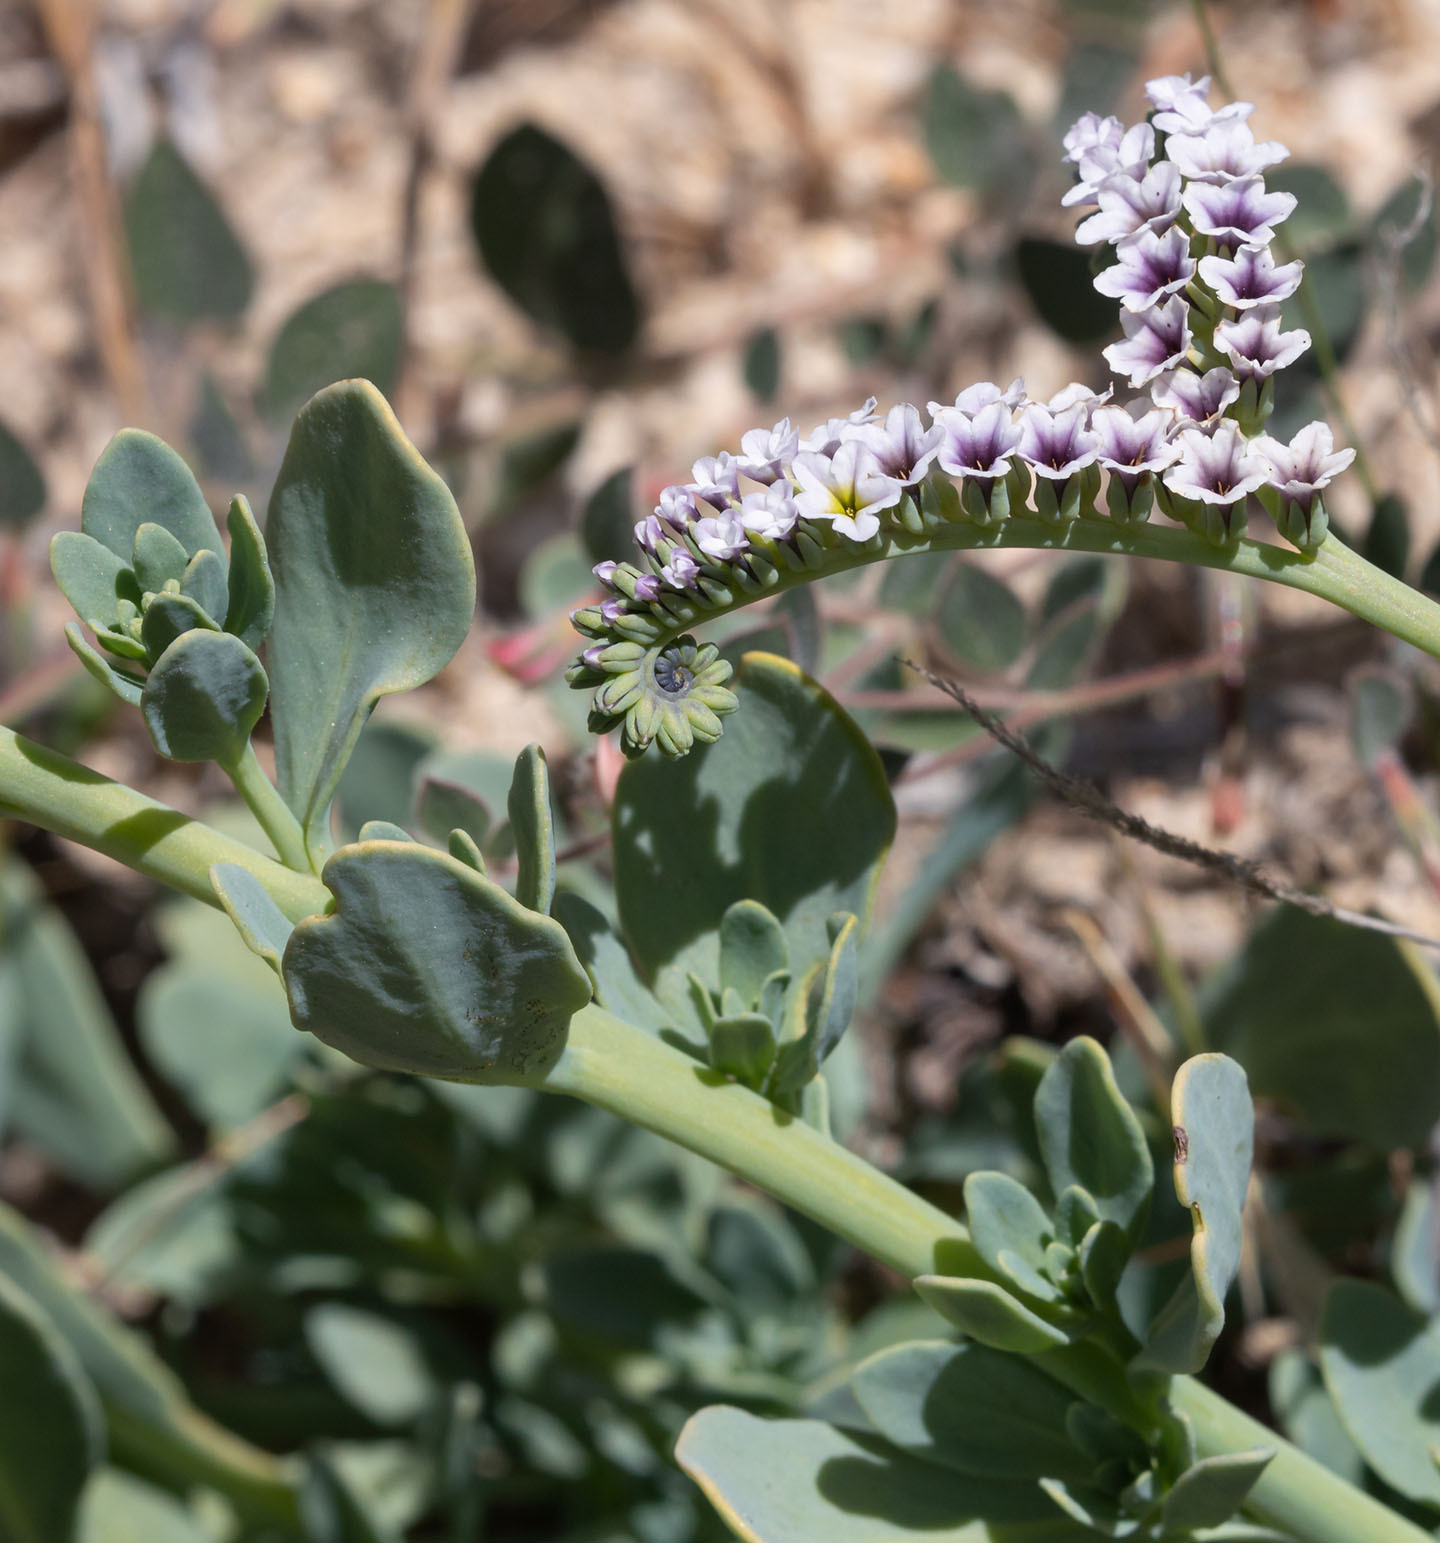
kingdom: Plantae
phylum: Tracheophyta
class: Magnoliopsida
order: Boraginales
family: Heliotropiaceae
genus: Heliotropium
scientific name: Heliotropium curassavicum
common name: Seaside heliotrope
